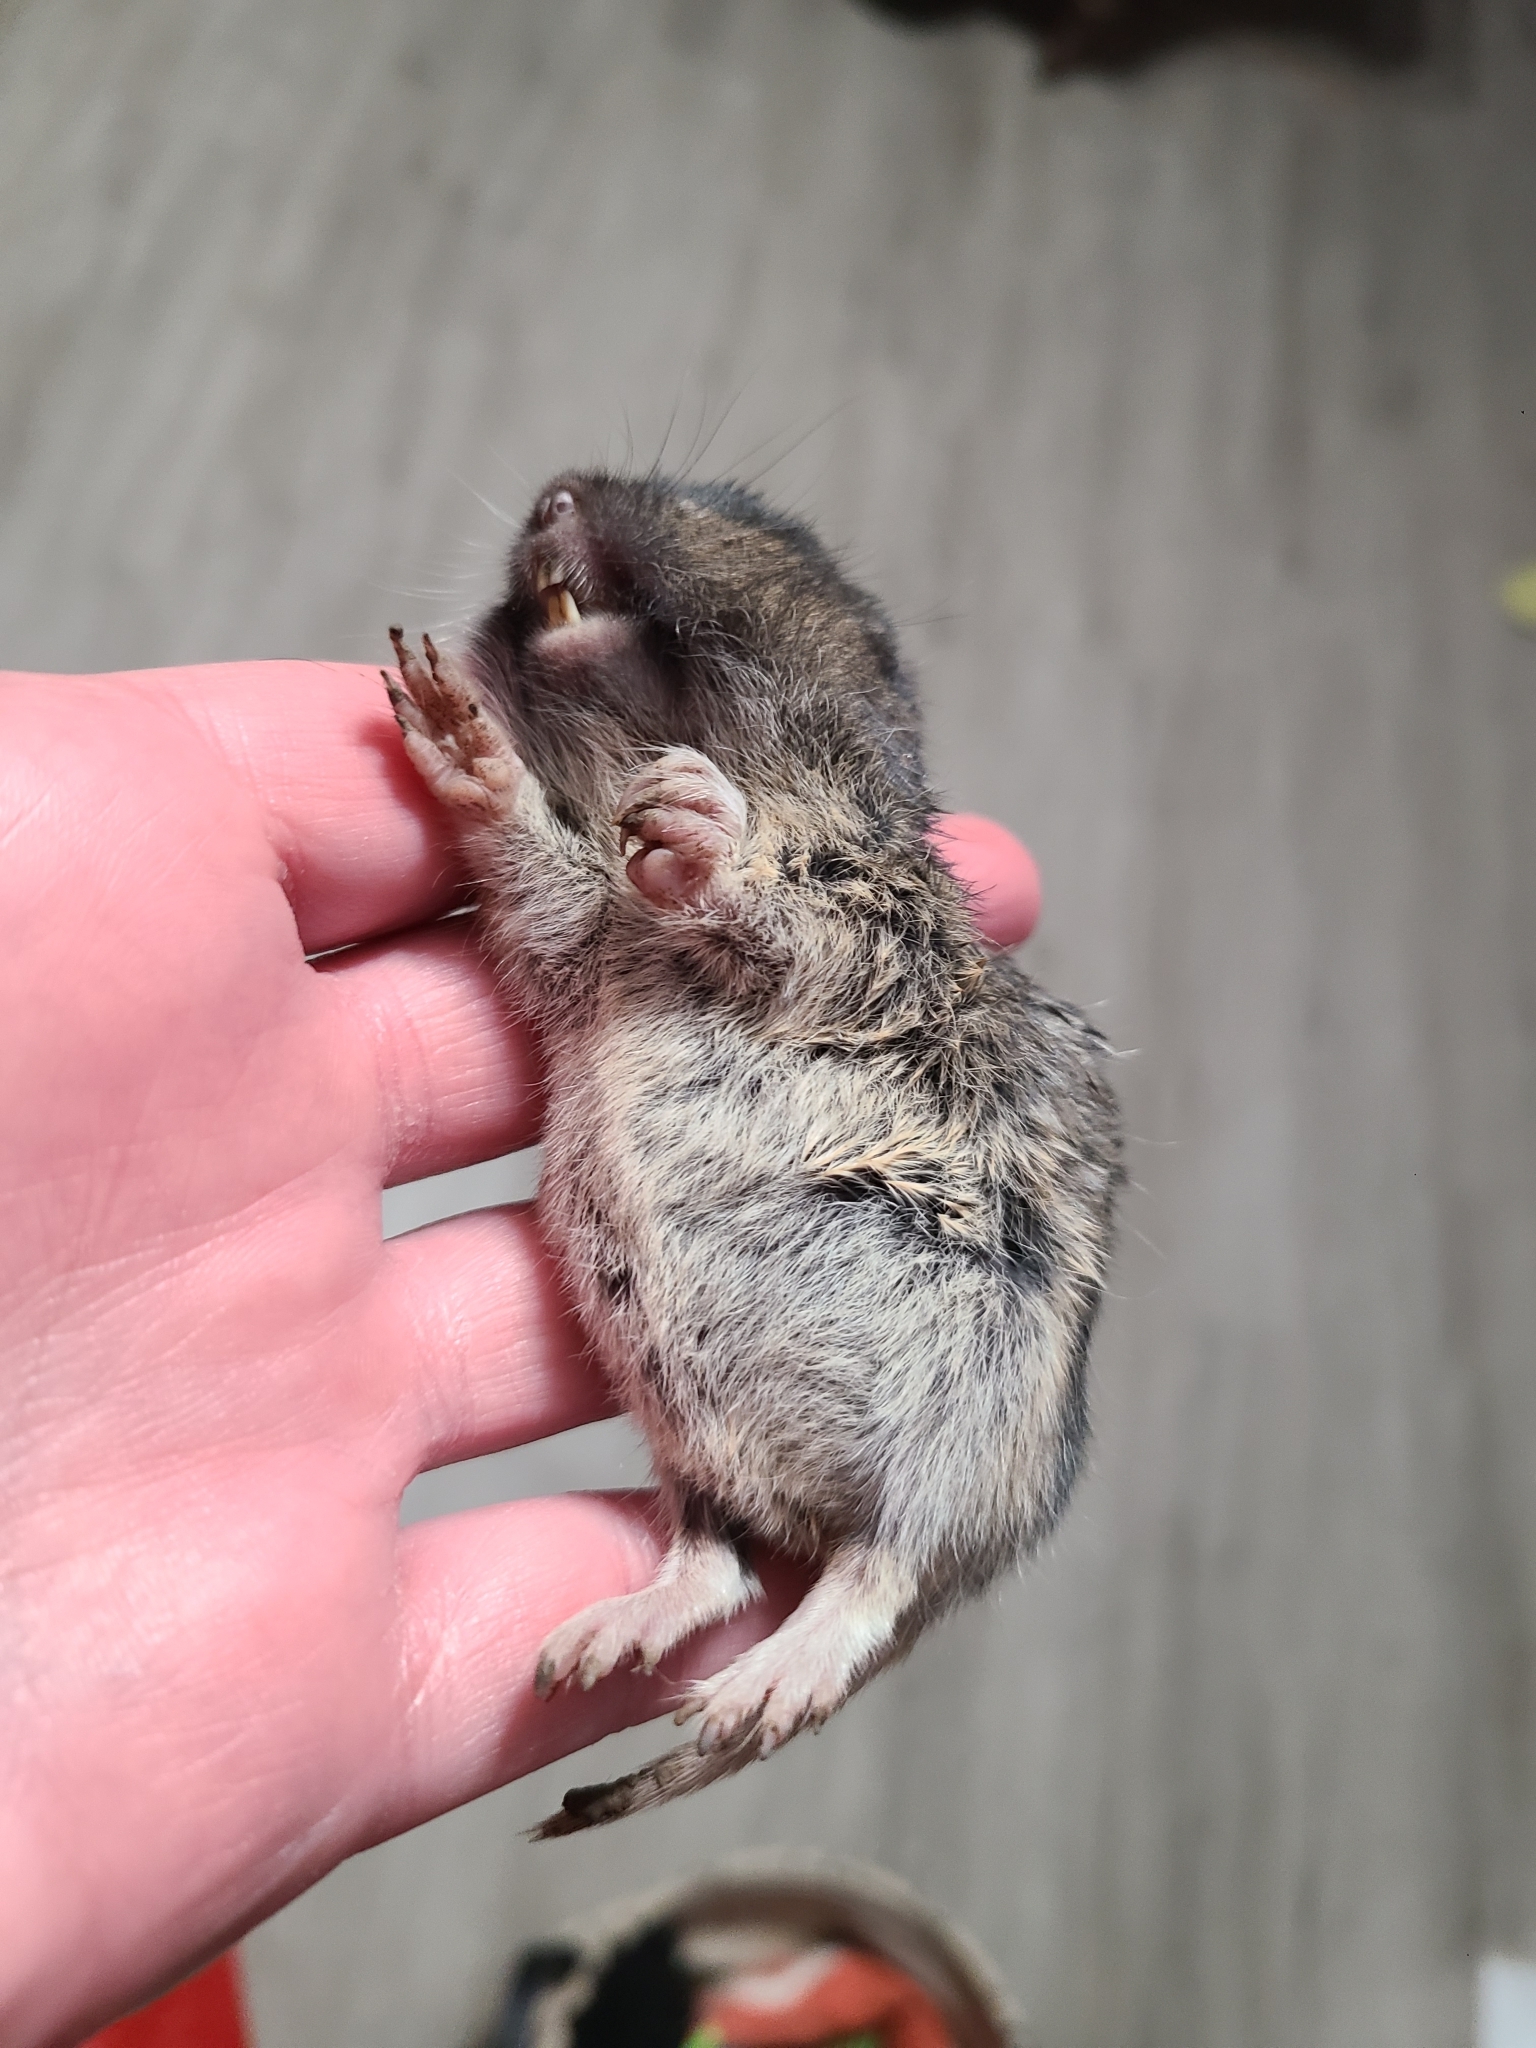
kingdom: Animalia
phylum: Chordata
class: Mammalia
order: Rodentia
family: Geomyidae
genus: Thomomys
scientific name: Thomomys bottae
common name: Botta's pocket gopher
